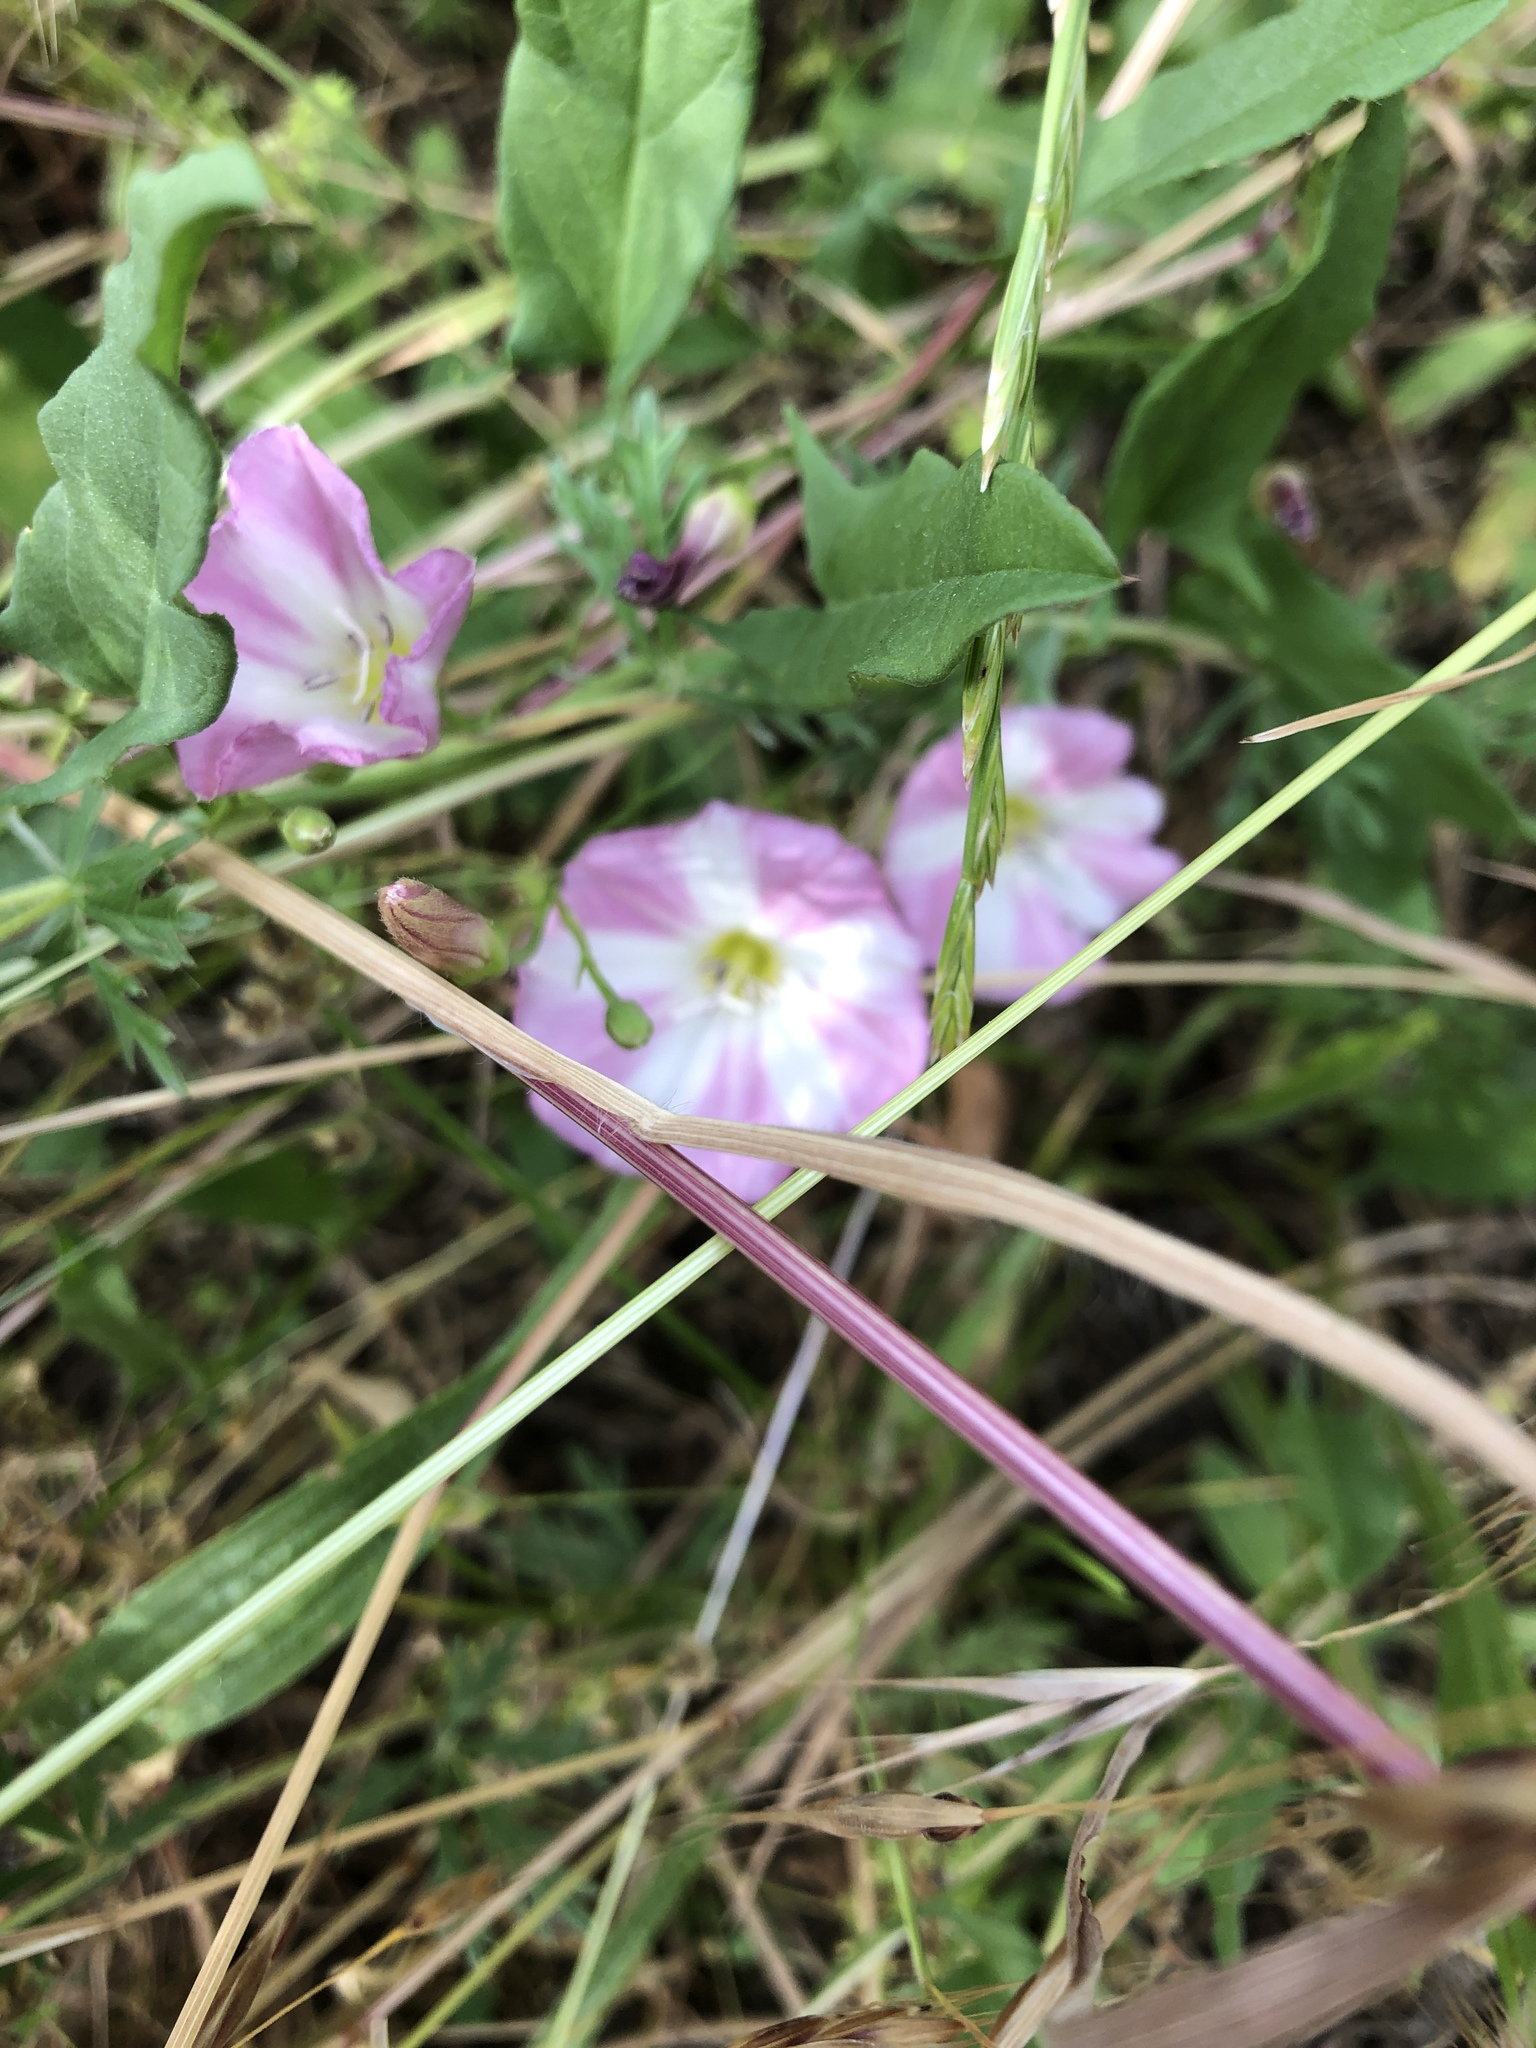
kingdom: Plantae
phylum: Tracheophyta
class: Magnoliopsida
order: Solanales
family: Convolvulaceae
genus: Convolvulus
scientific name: Convolvulus arvensis
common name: Field bindweed
